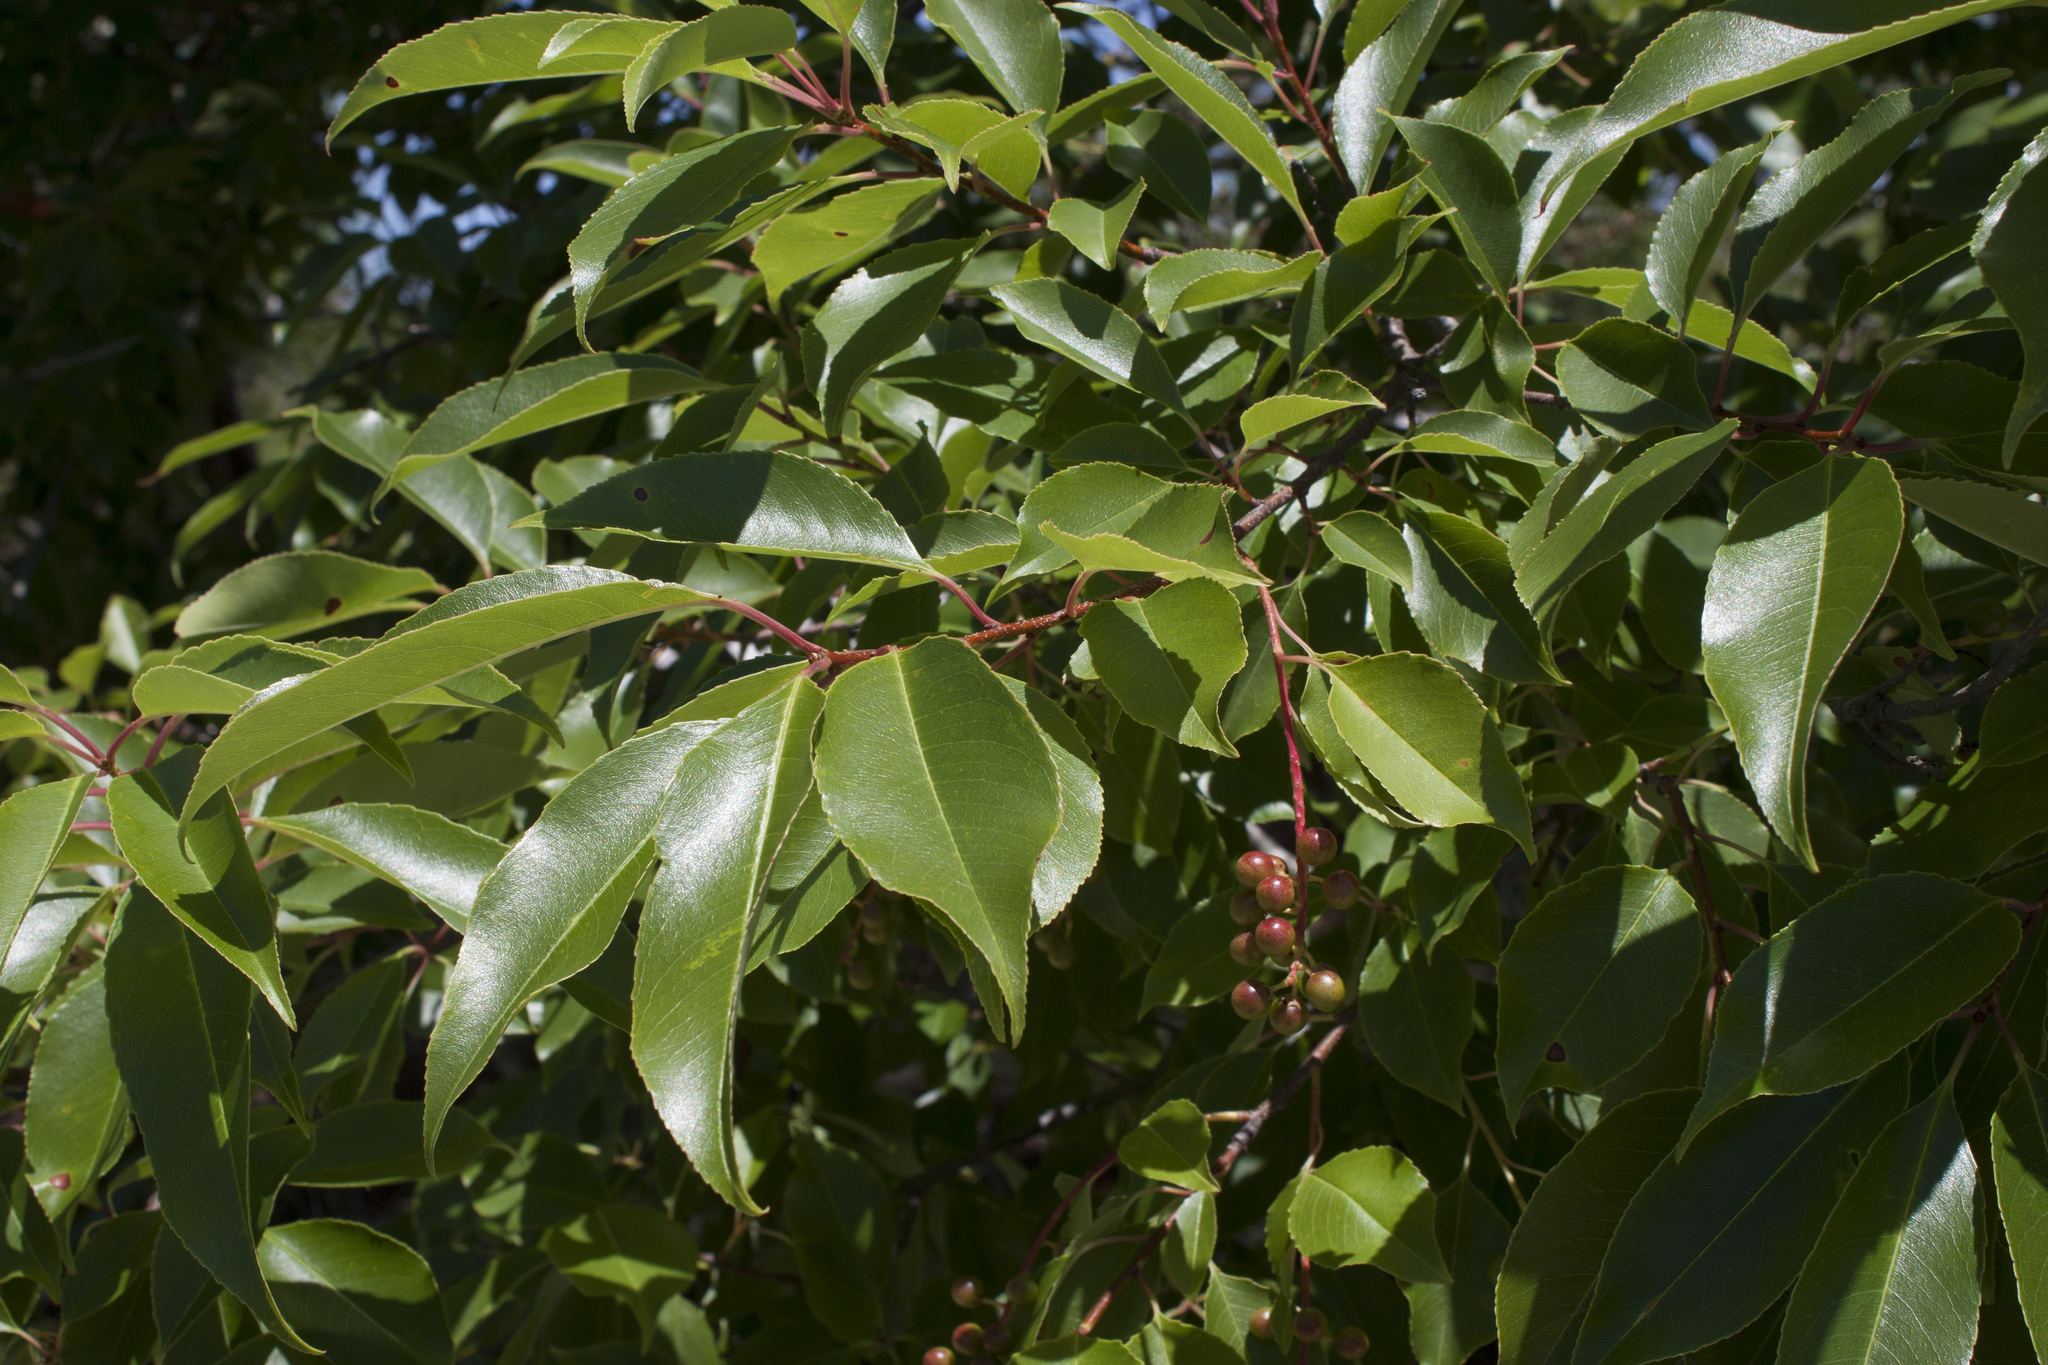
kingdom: Plantae
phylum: Tracheophyta
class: Magnoliopsida
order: Rosales
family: Rosaceae
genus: Prunus
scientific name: Prunus serotina
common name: Black cherry
